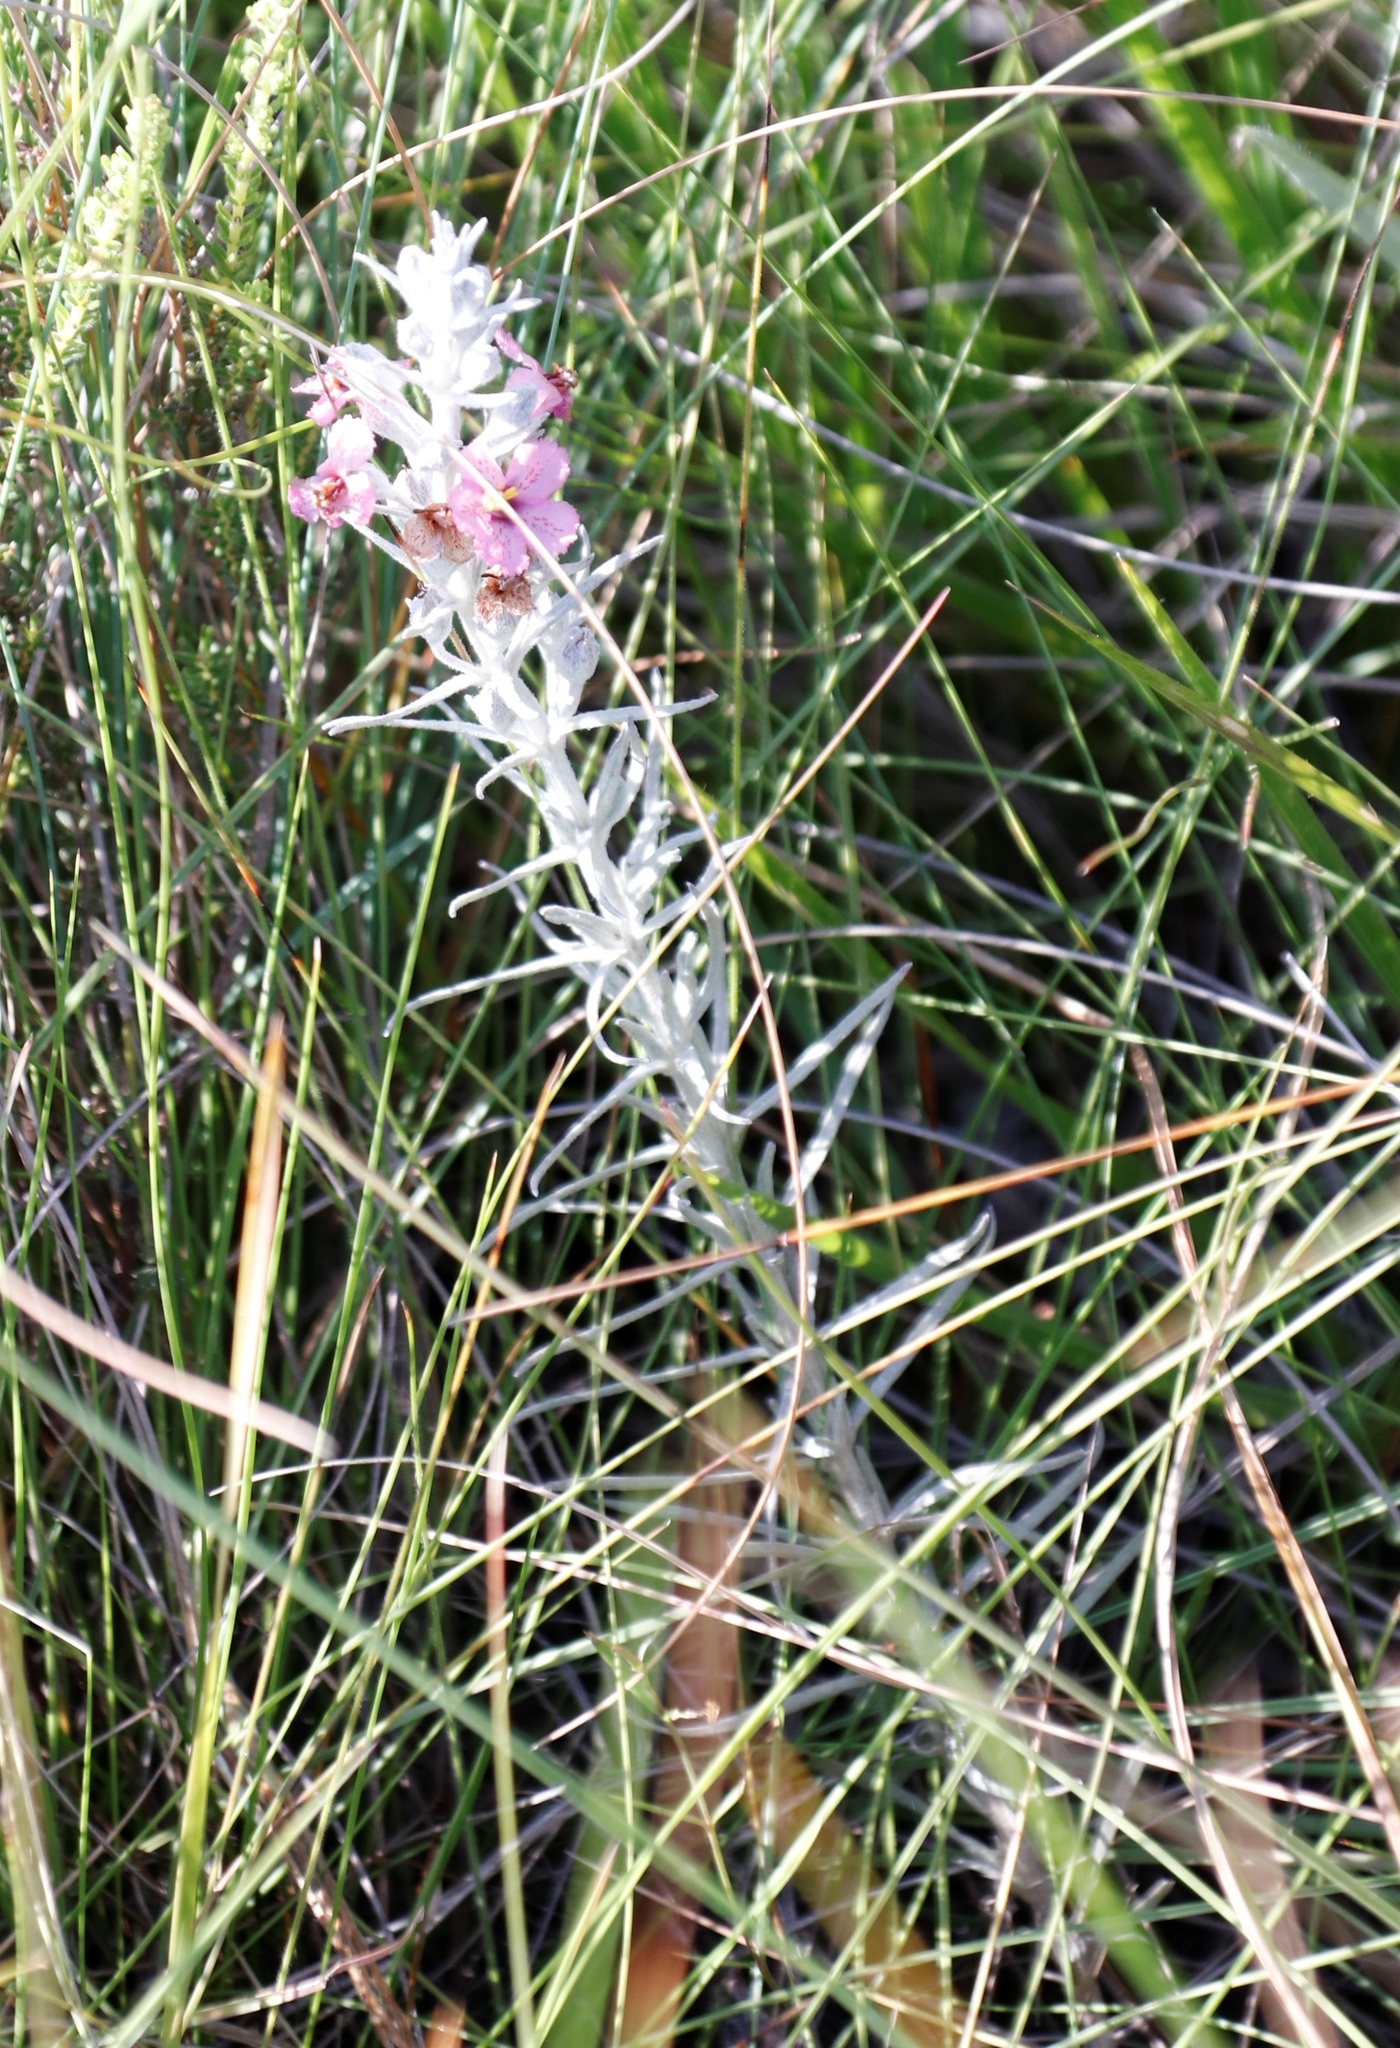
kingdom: Plantae
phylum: Tracheophyta
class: Magnoliopsida
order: Lamiales
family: Orobanchaceae
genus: Sopubia
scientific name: Sopubia cana
